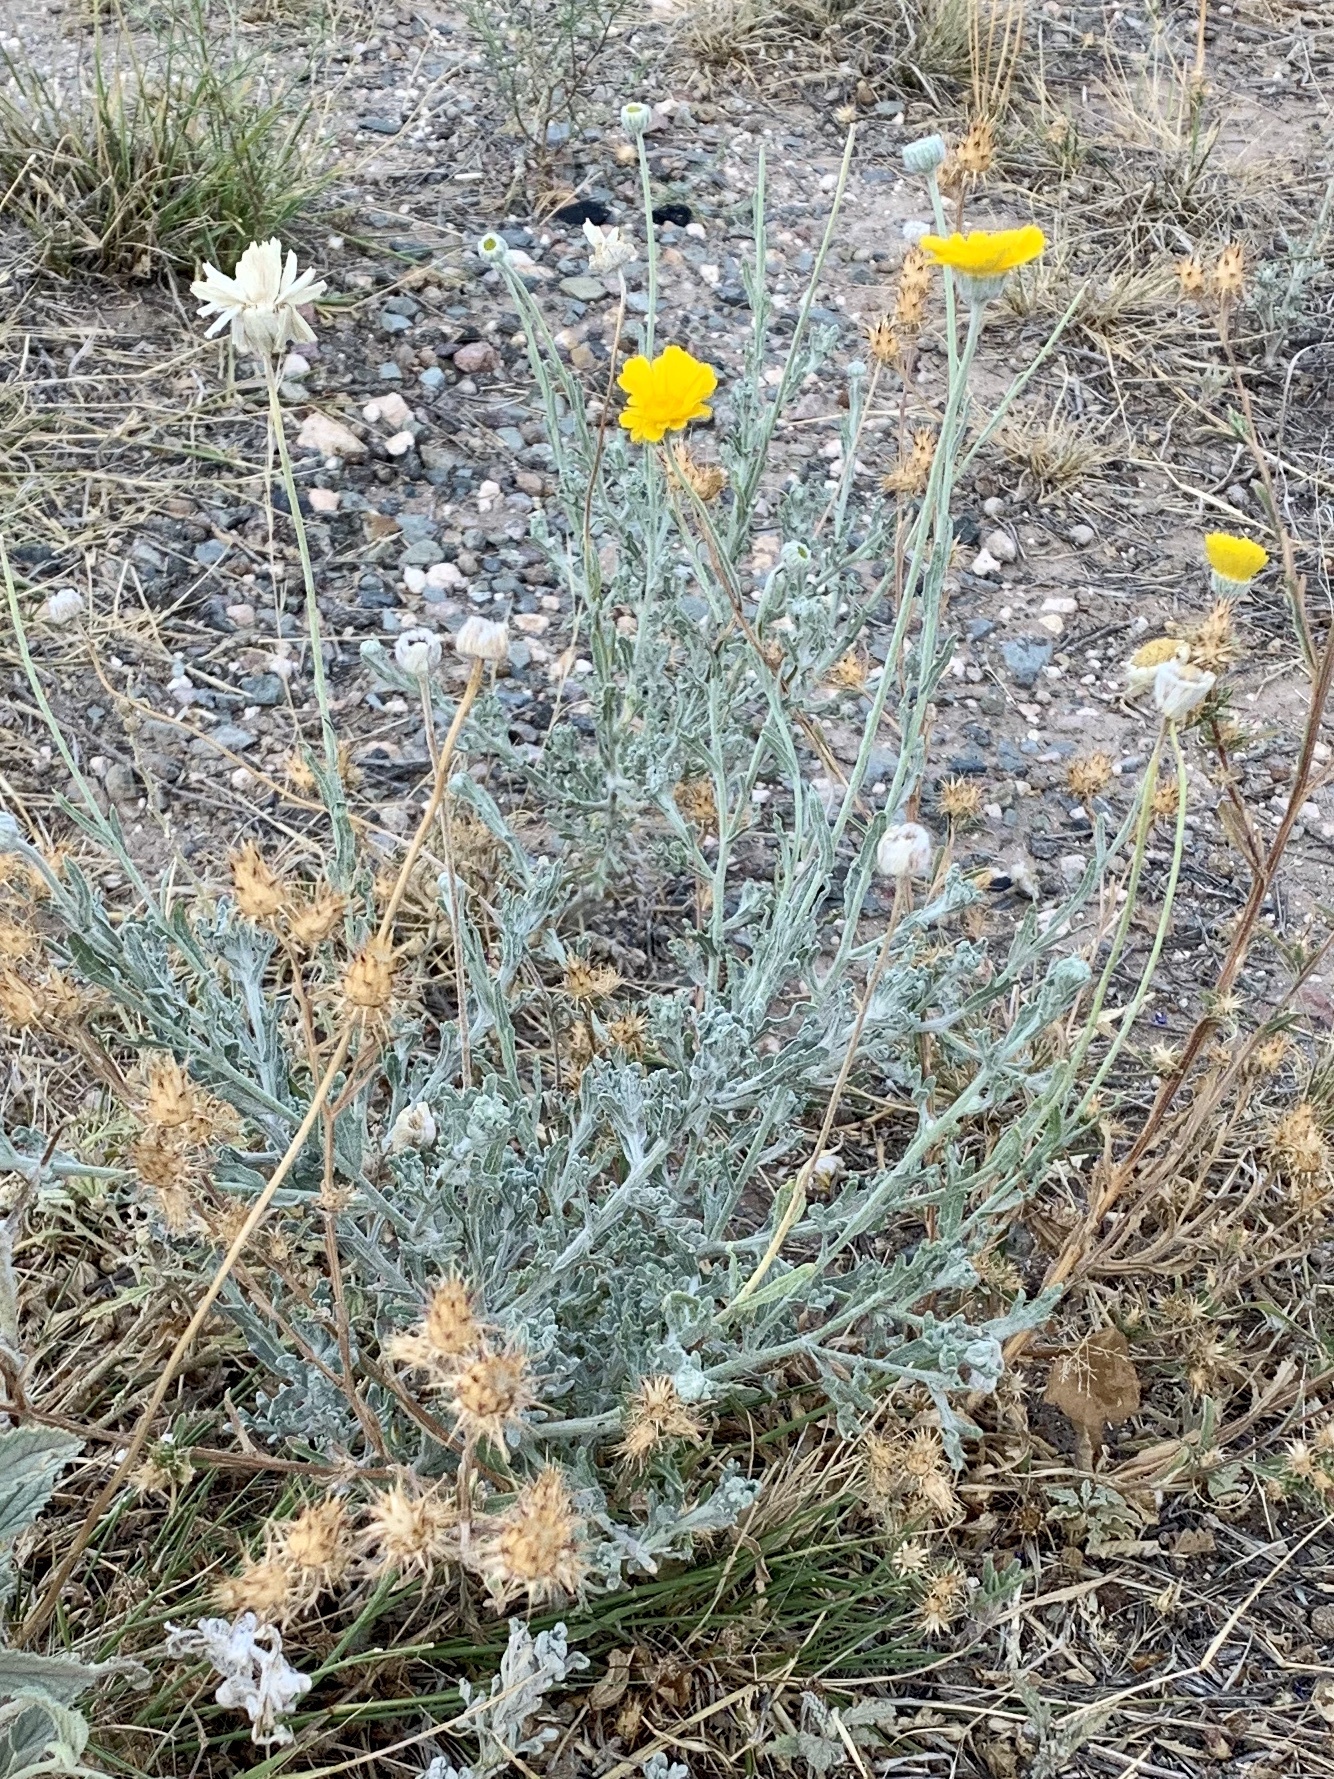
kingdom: Plantae
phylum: Tracheophyta
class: Magnoliopsida
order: Asterales
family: Asteraceae
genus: Baileya
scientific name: Baileya multiradiata
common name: Desert-marigold
